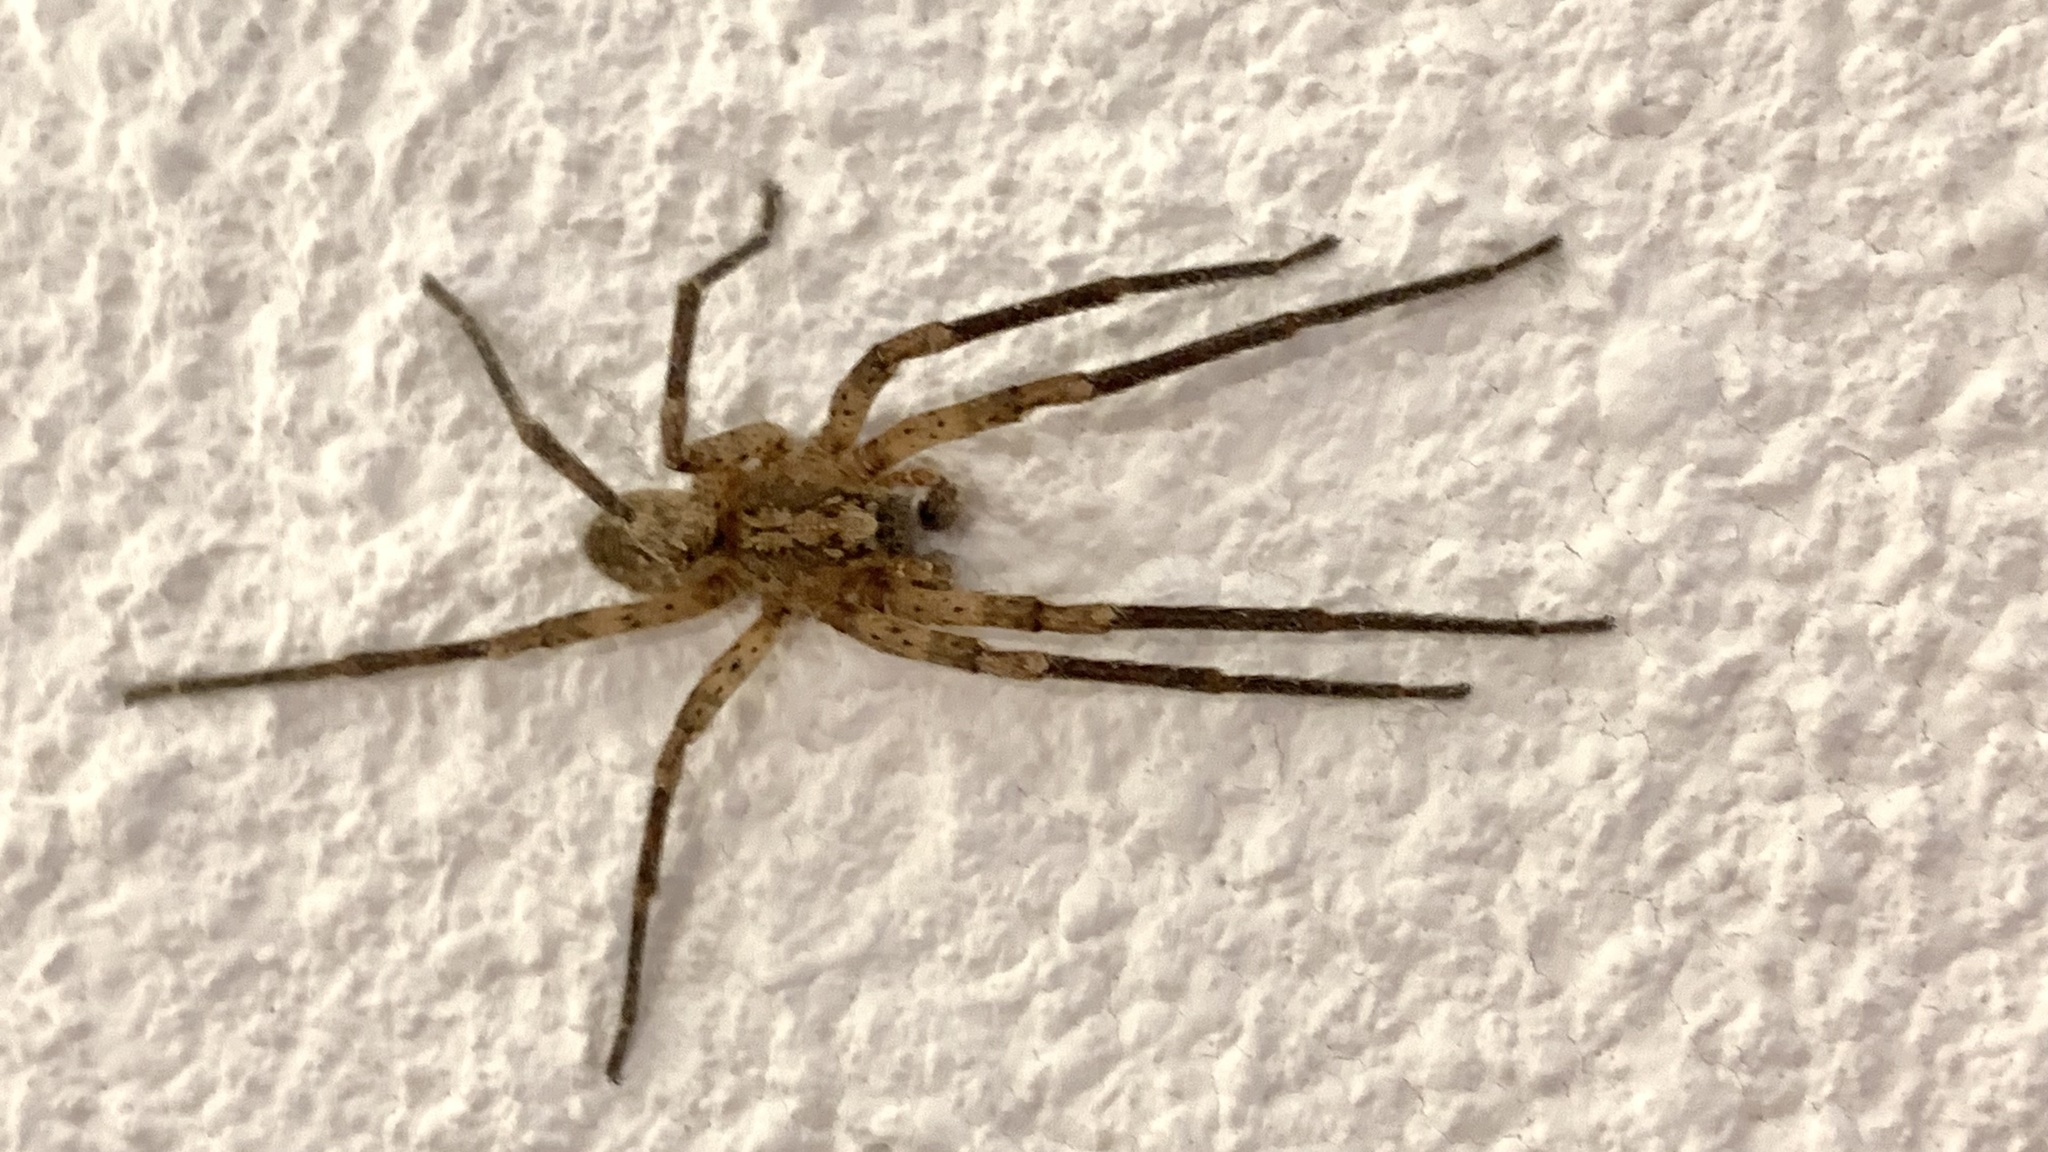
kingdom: Animalia
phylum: Arthropoda
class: Arachnida
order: Araneae
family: Zoropsidae
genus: Zoropsis
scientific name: Zoropsis spinimana
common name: Zoropsid spider
